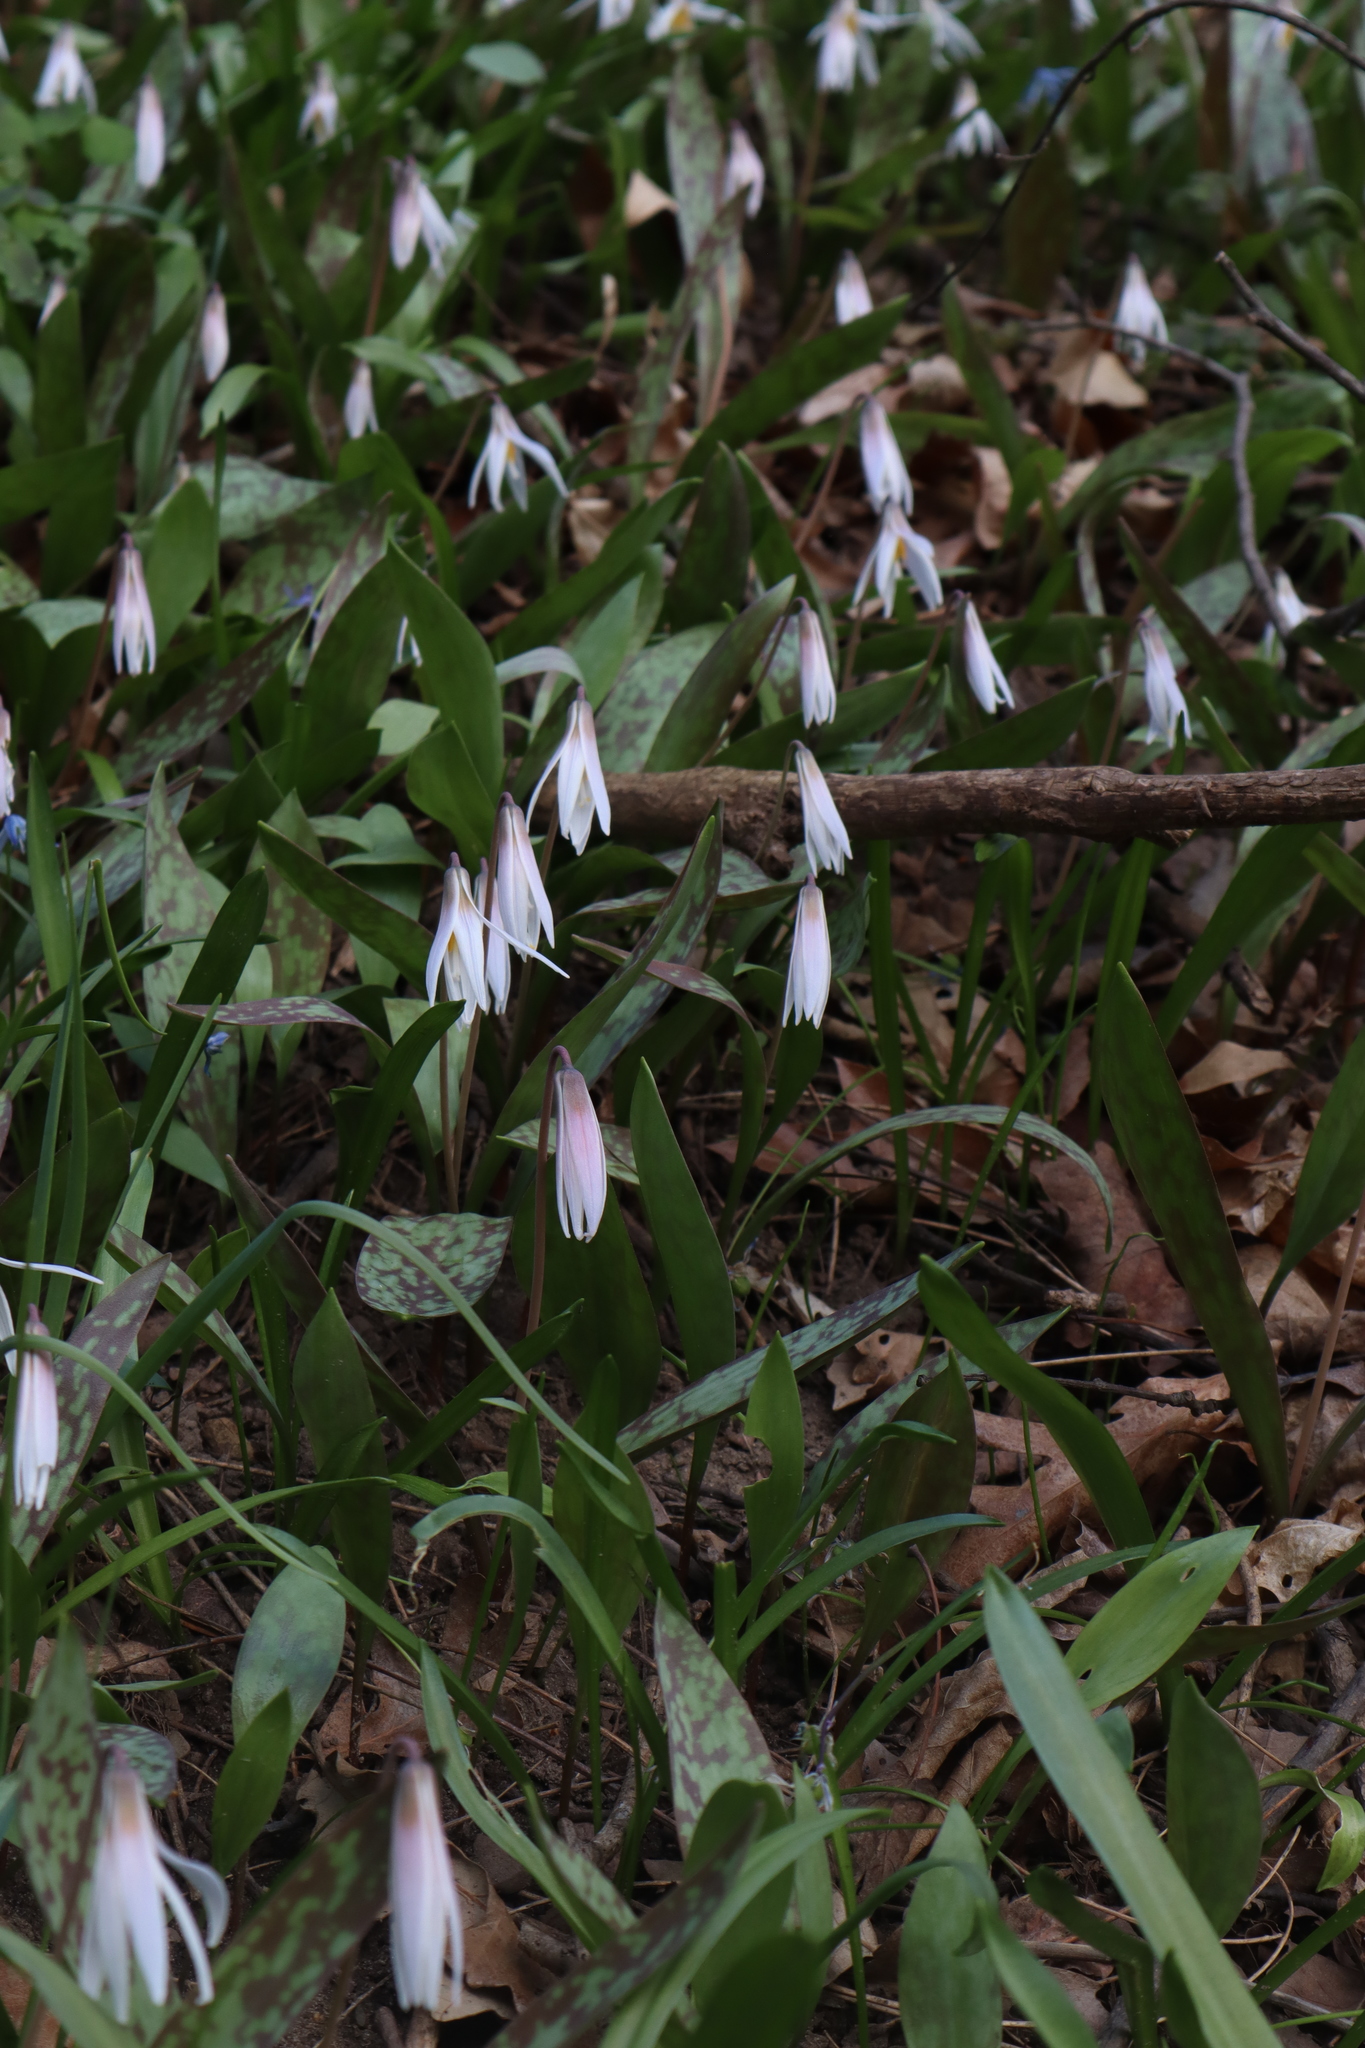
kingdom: Plantae
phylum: Tracheophyta
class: Liliopsida
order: Liliales
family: Liliaceae
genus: Erythronium
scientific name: Erythronium albidum
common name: White trout-lily
